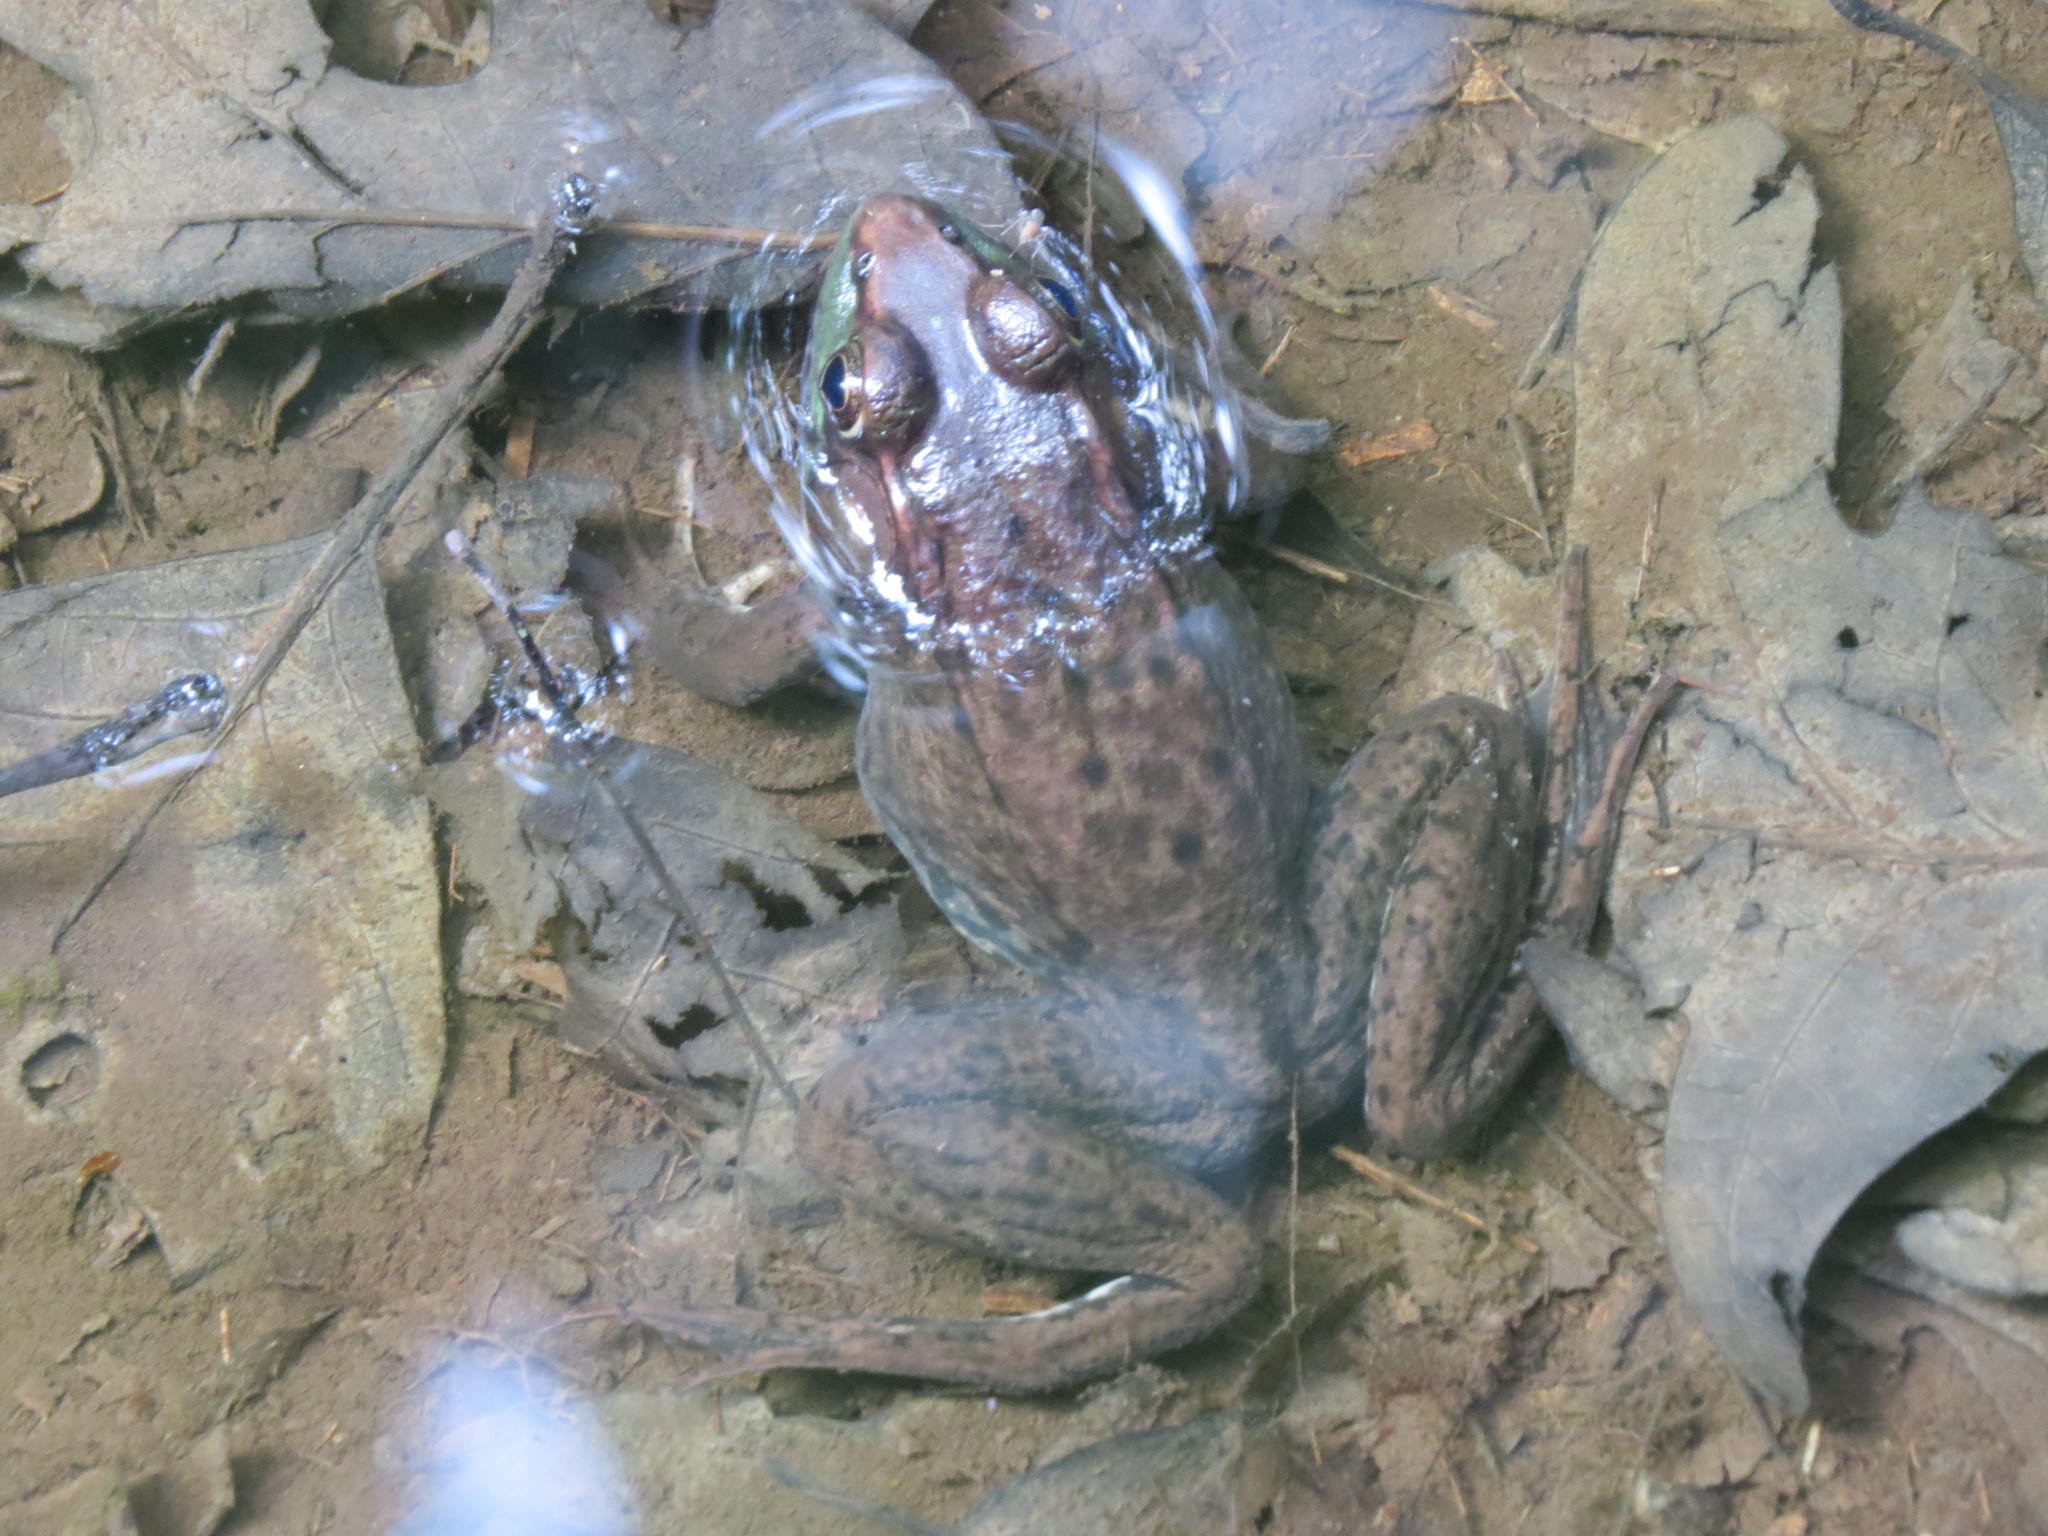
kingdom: Animalia
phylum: Chordata
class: Amphibia
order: Anura
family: Ranidae
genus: Lithobates
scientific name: Lithobates clamitans
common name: Green frog
